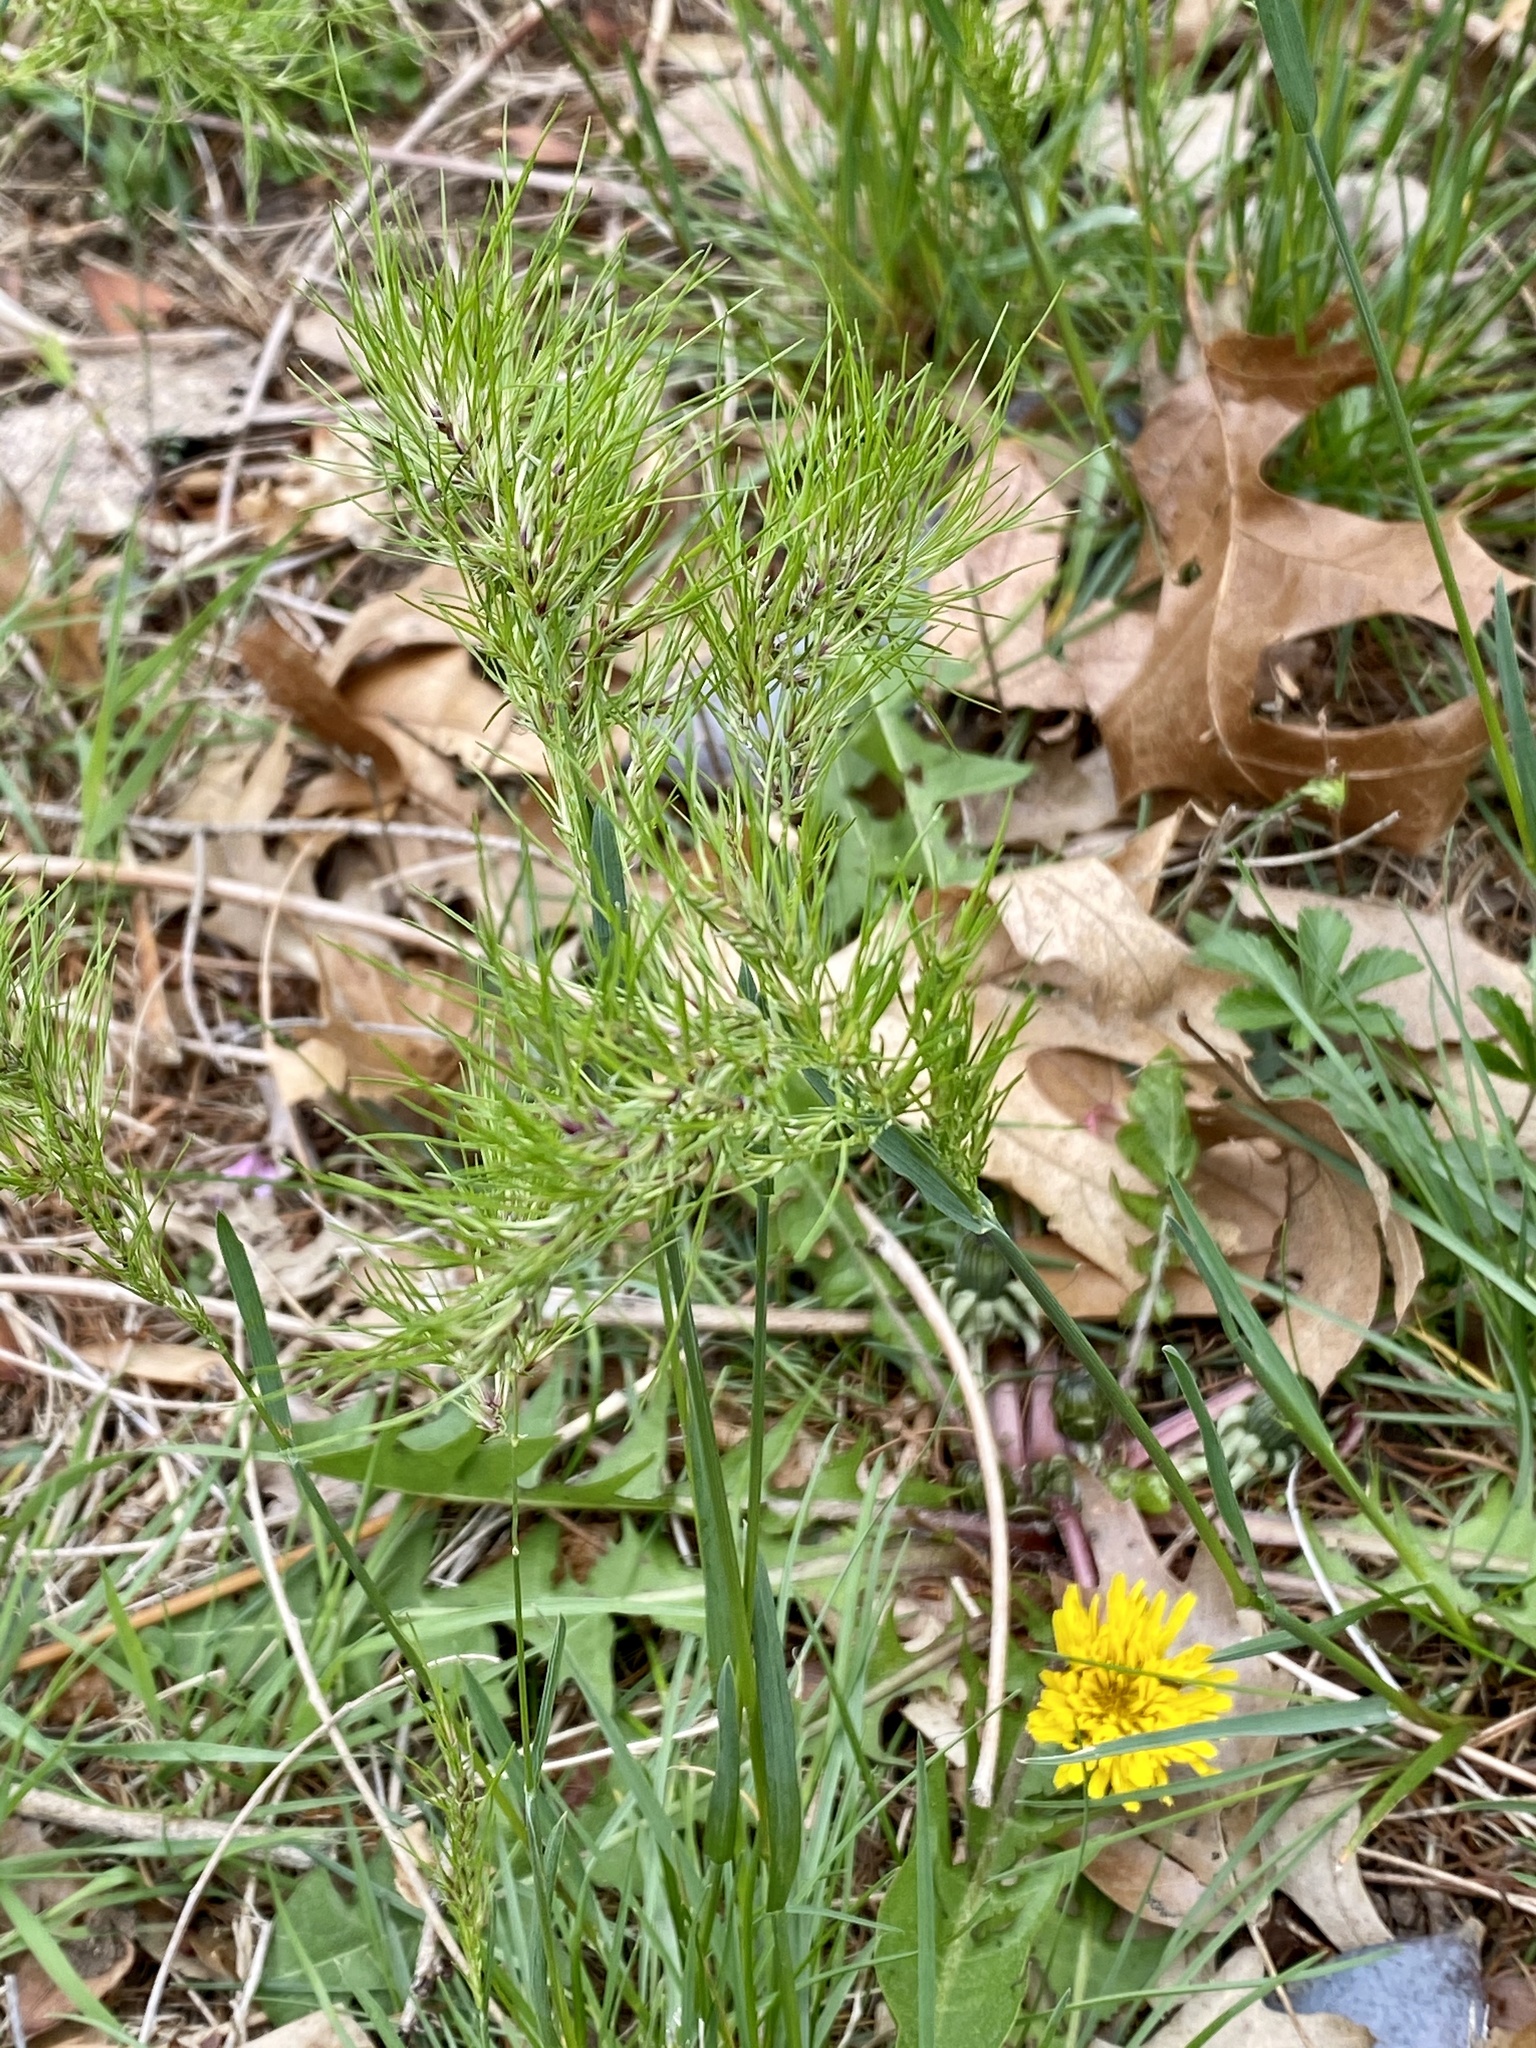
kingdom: Plantae
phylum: Tracheophyta
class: Liliopsida
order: Poales
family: Poaceae
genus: Poa
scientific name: Poa bulbosa
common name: Bulbous bluegrass
